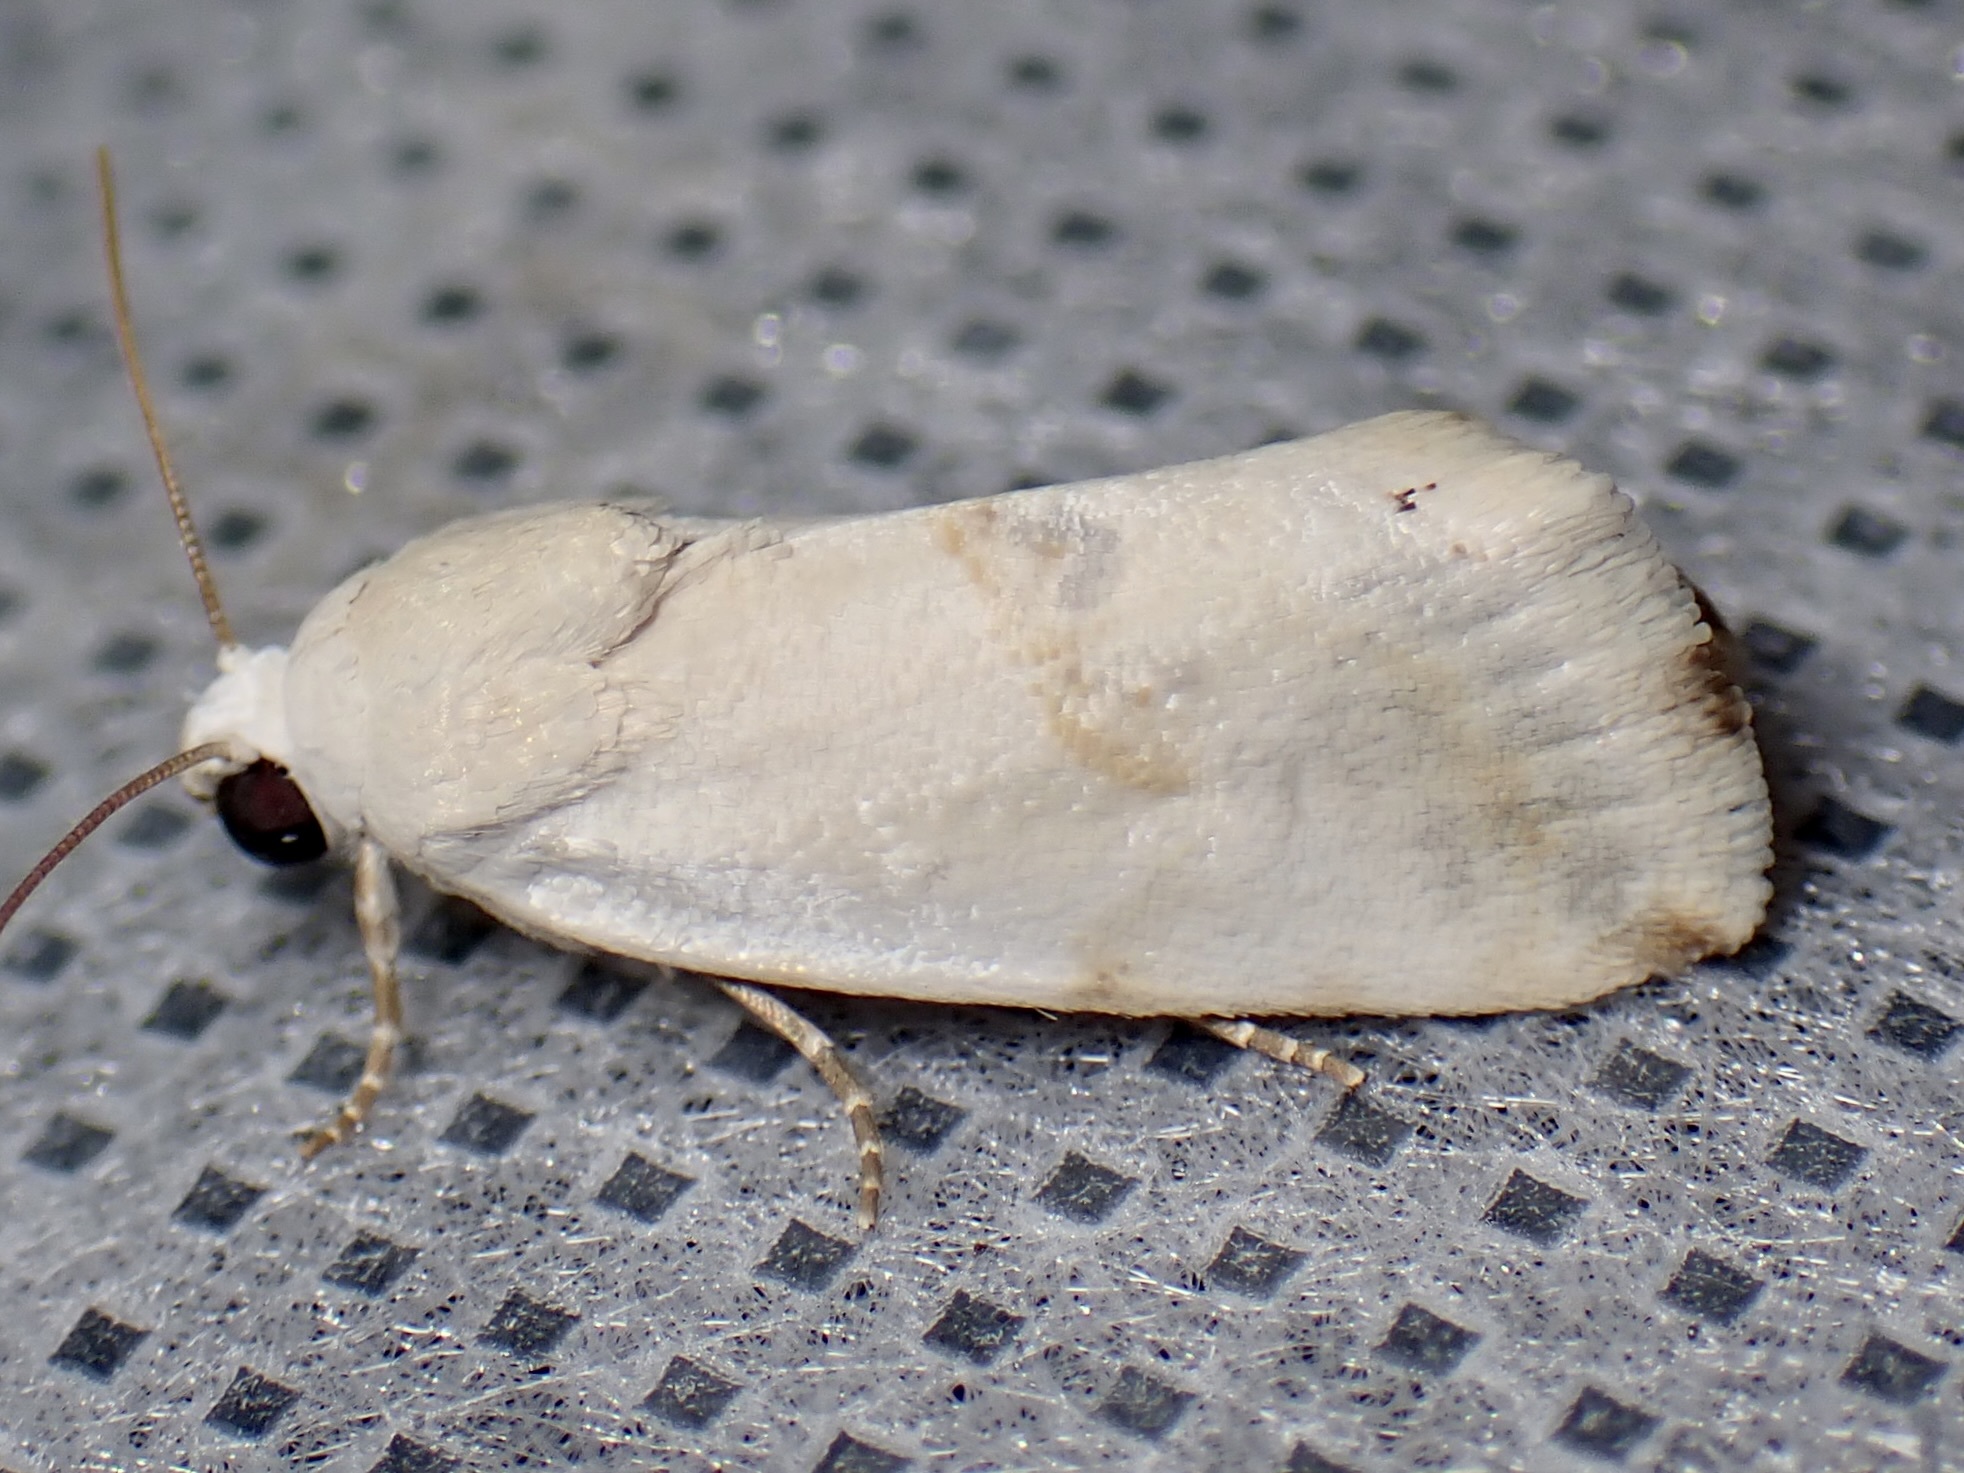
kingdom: Animalia
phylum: Arthropoda
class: Insecta
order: Lepidoptera
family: Noctuidae
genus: Acontia
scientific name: Acontia acutus
